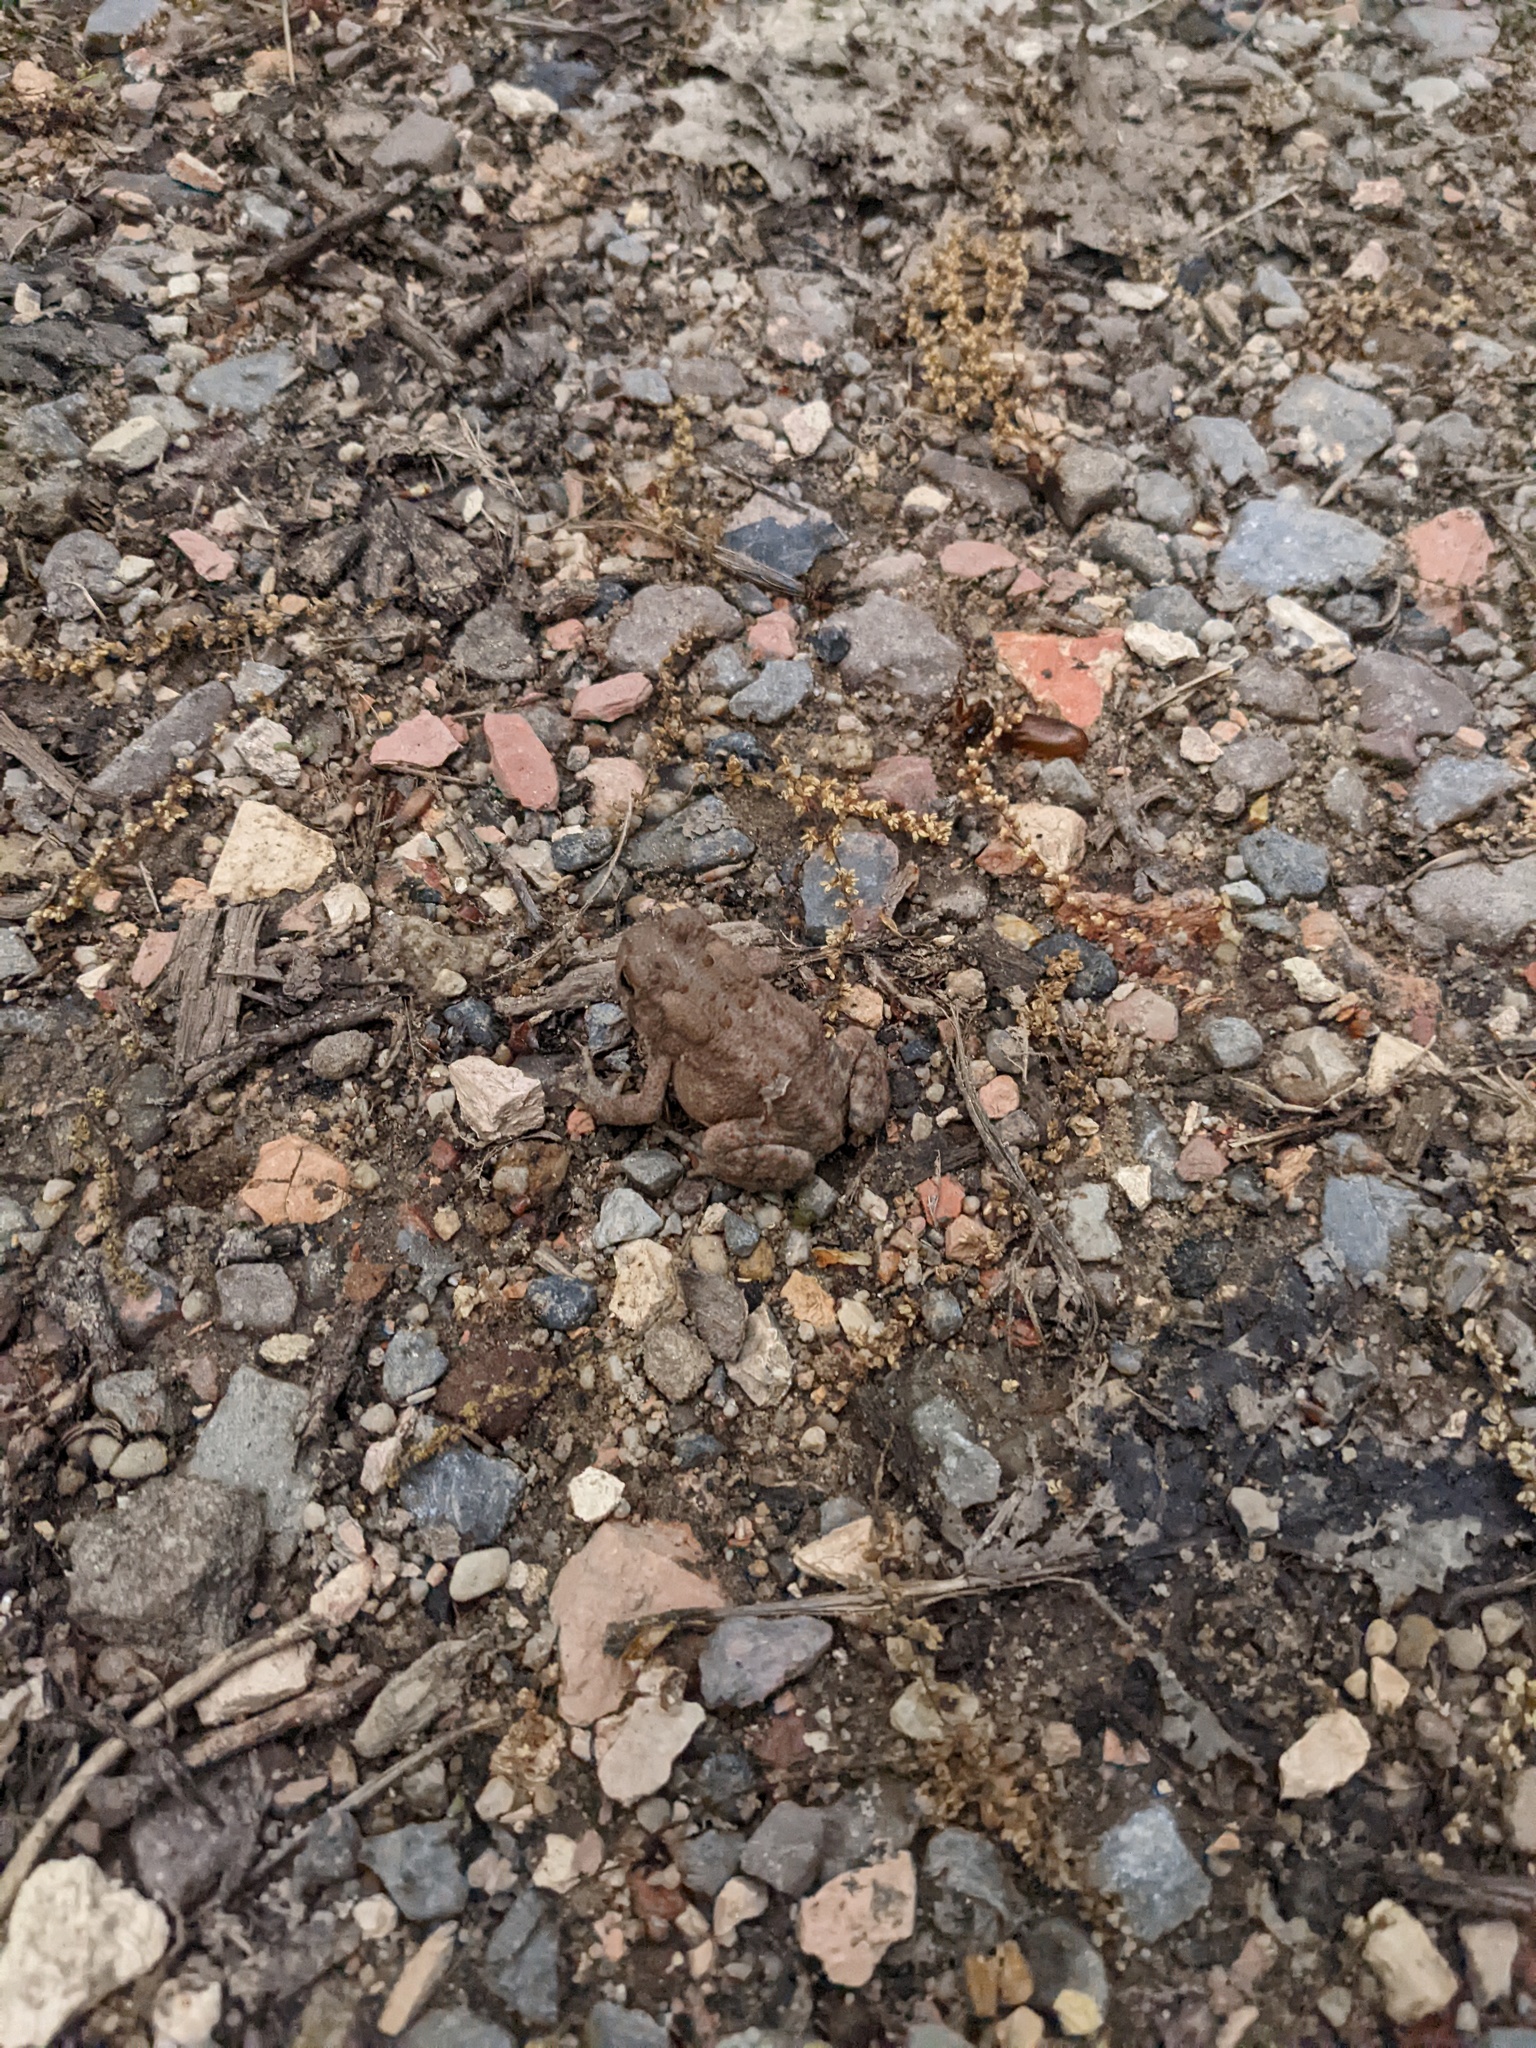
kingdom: Animalia
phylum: Chordata
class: Amphibia
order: Anura
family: Bufonidae
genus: Anaxyrus
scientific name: Anaxyrus americanus
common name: American toad
